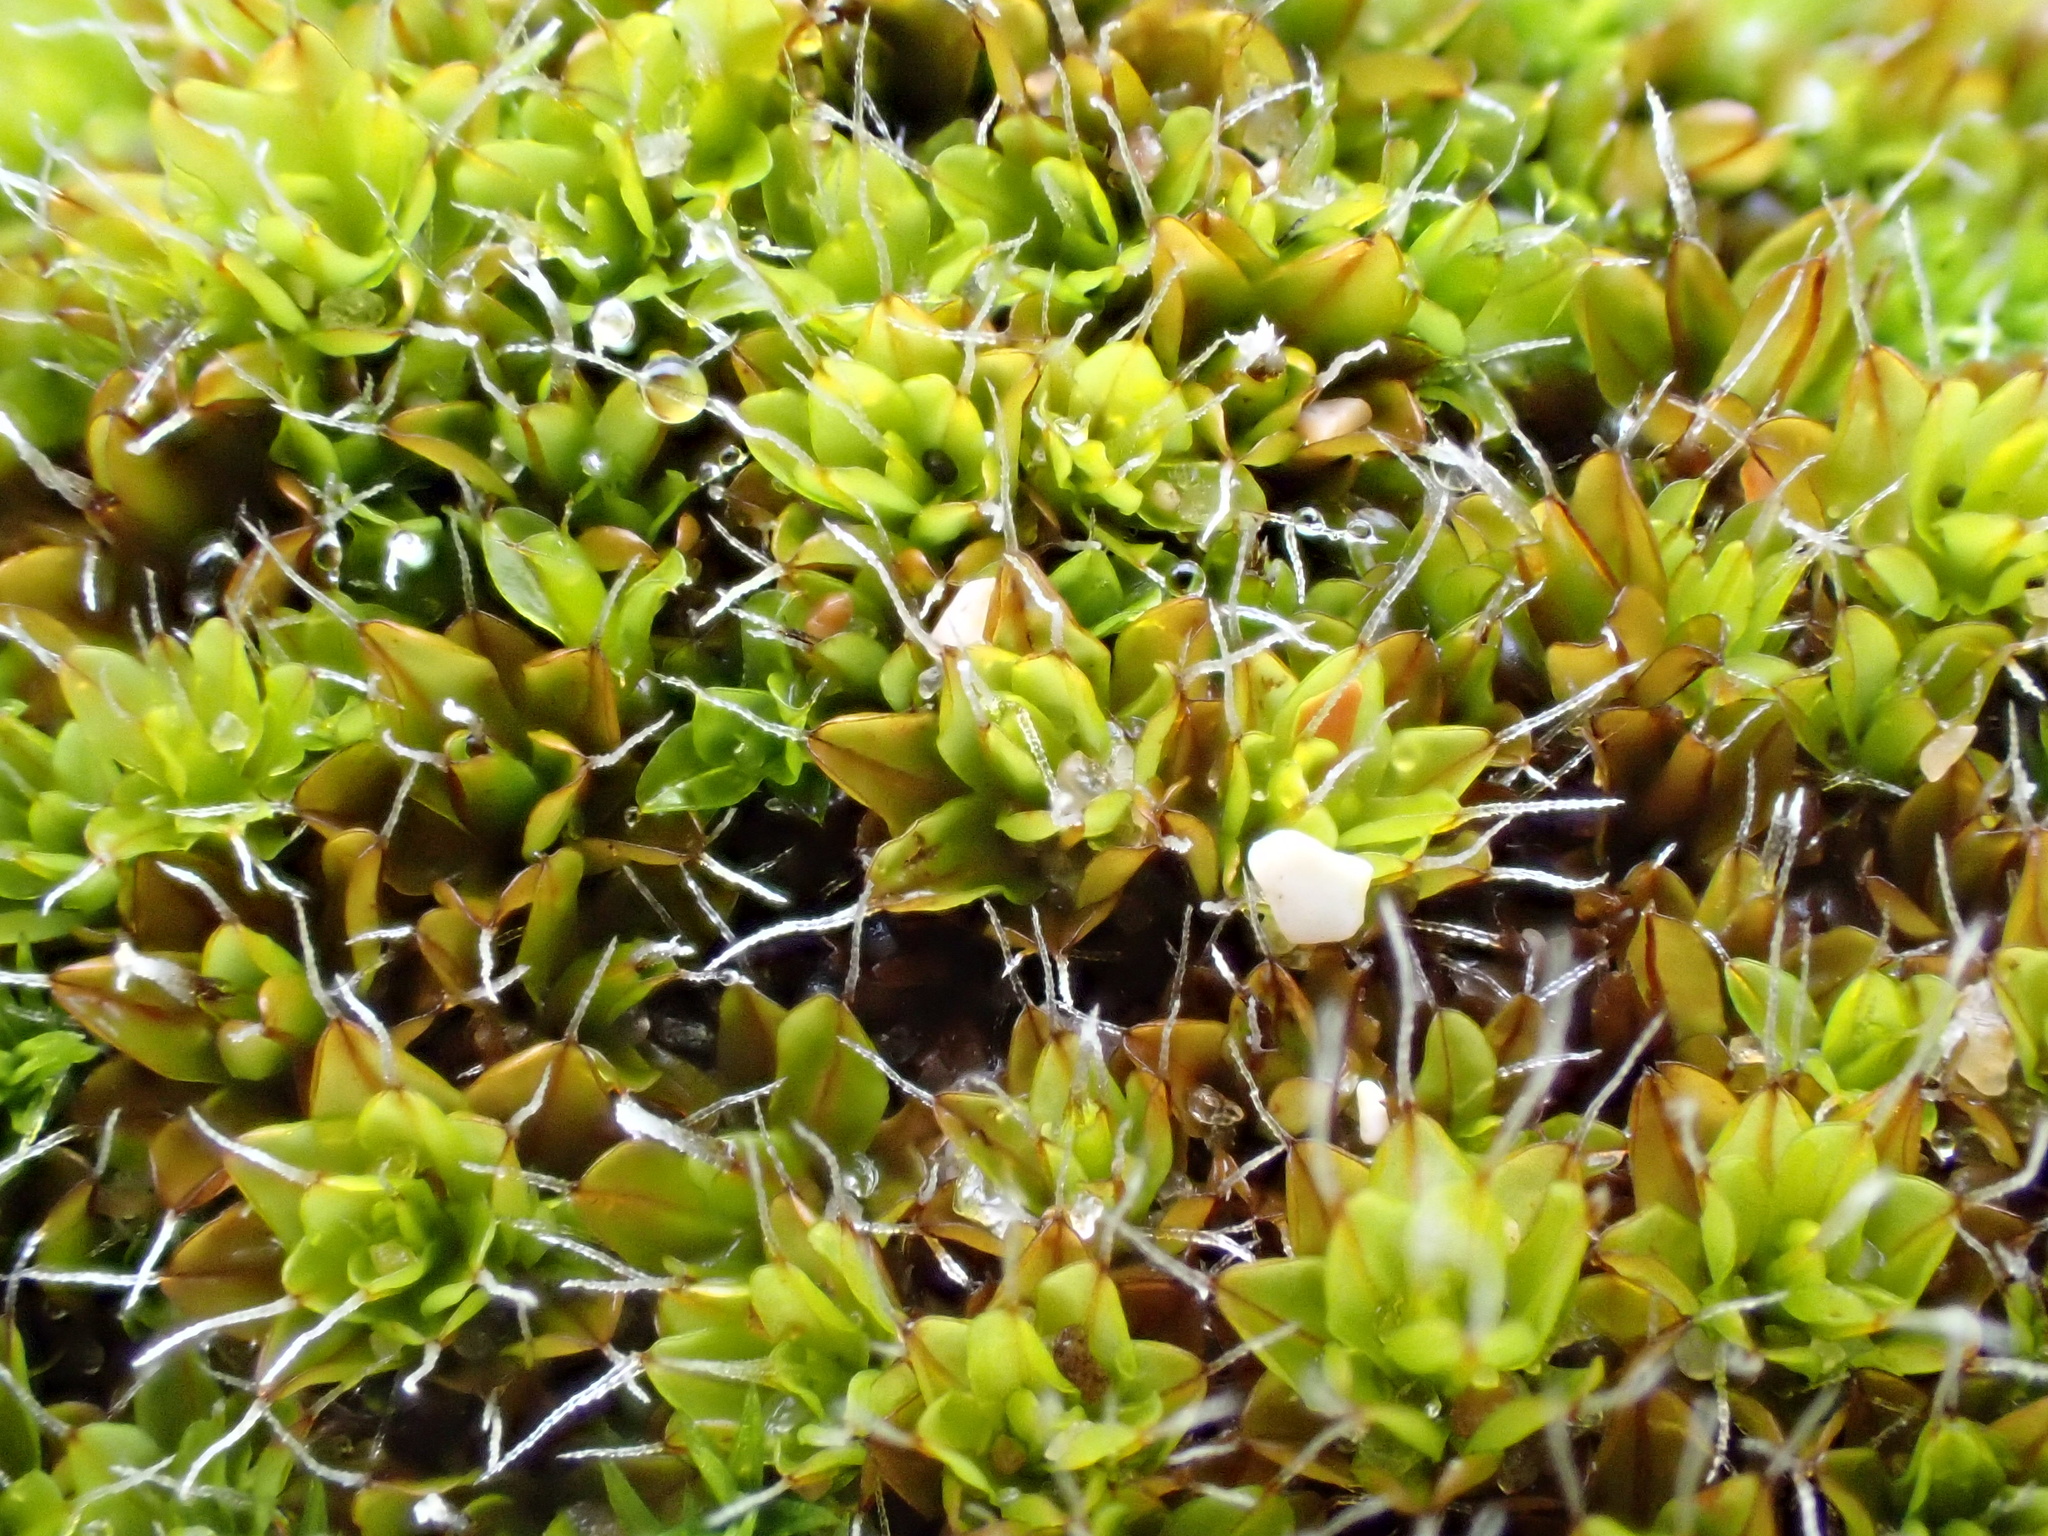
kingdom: Plantae
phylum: Bryophyta
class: Bryopsida
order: Pottiales
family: Pottiaceae
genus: Syntrichia
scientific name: Syntrichia montana
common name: Intermediate screw-moss
